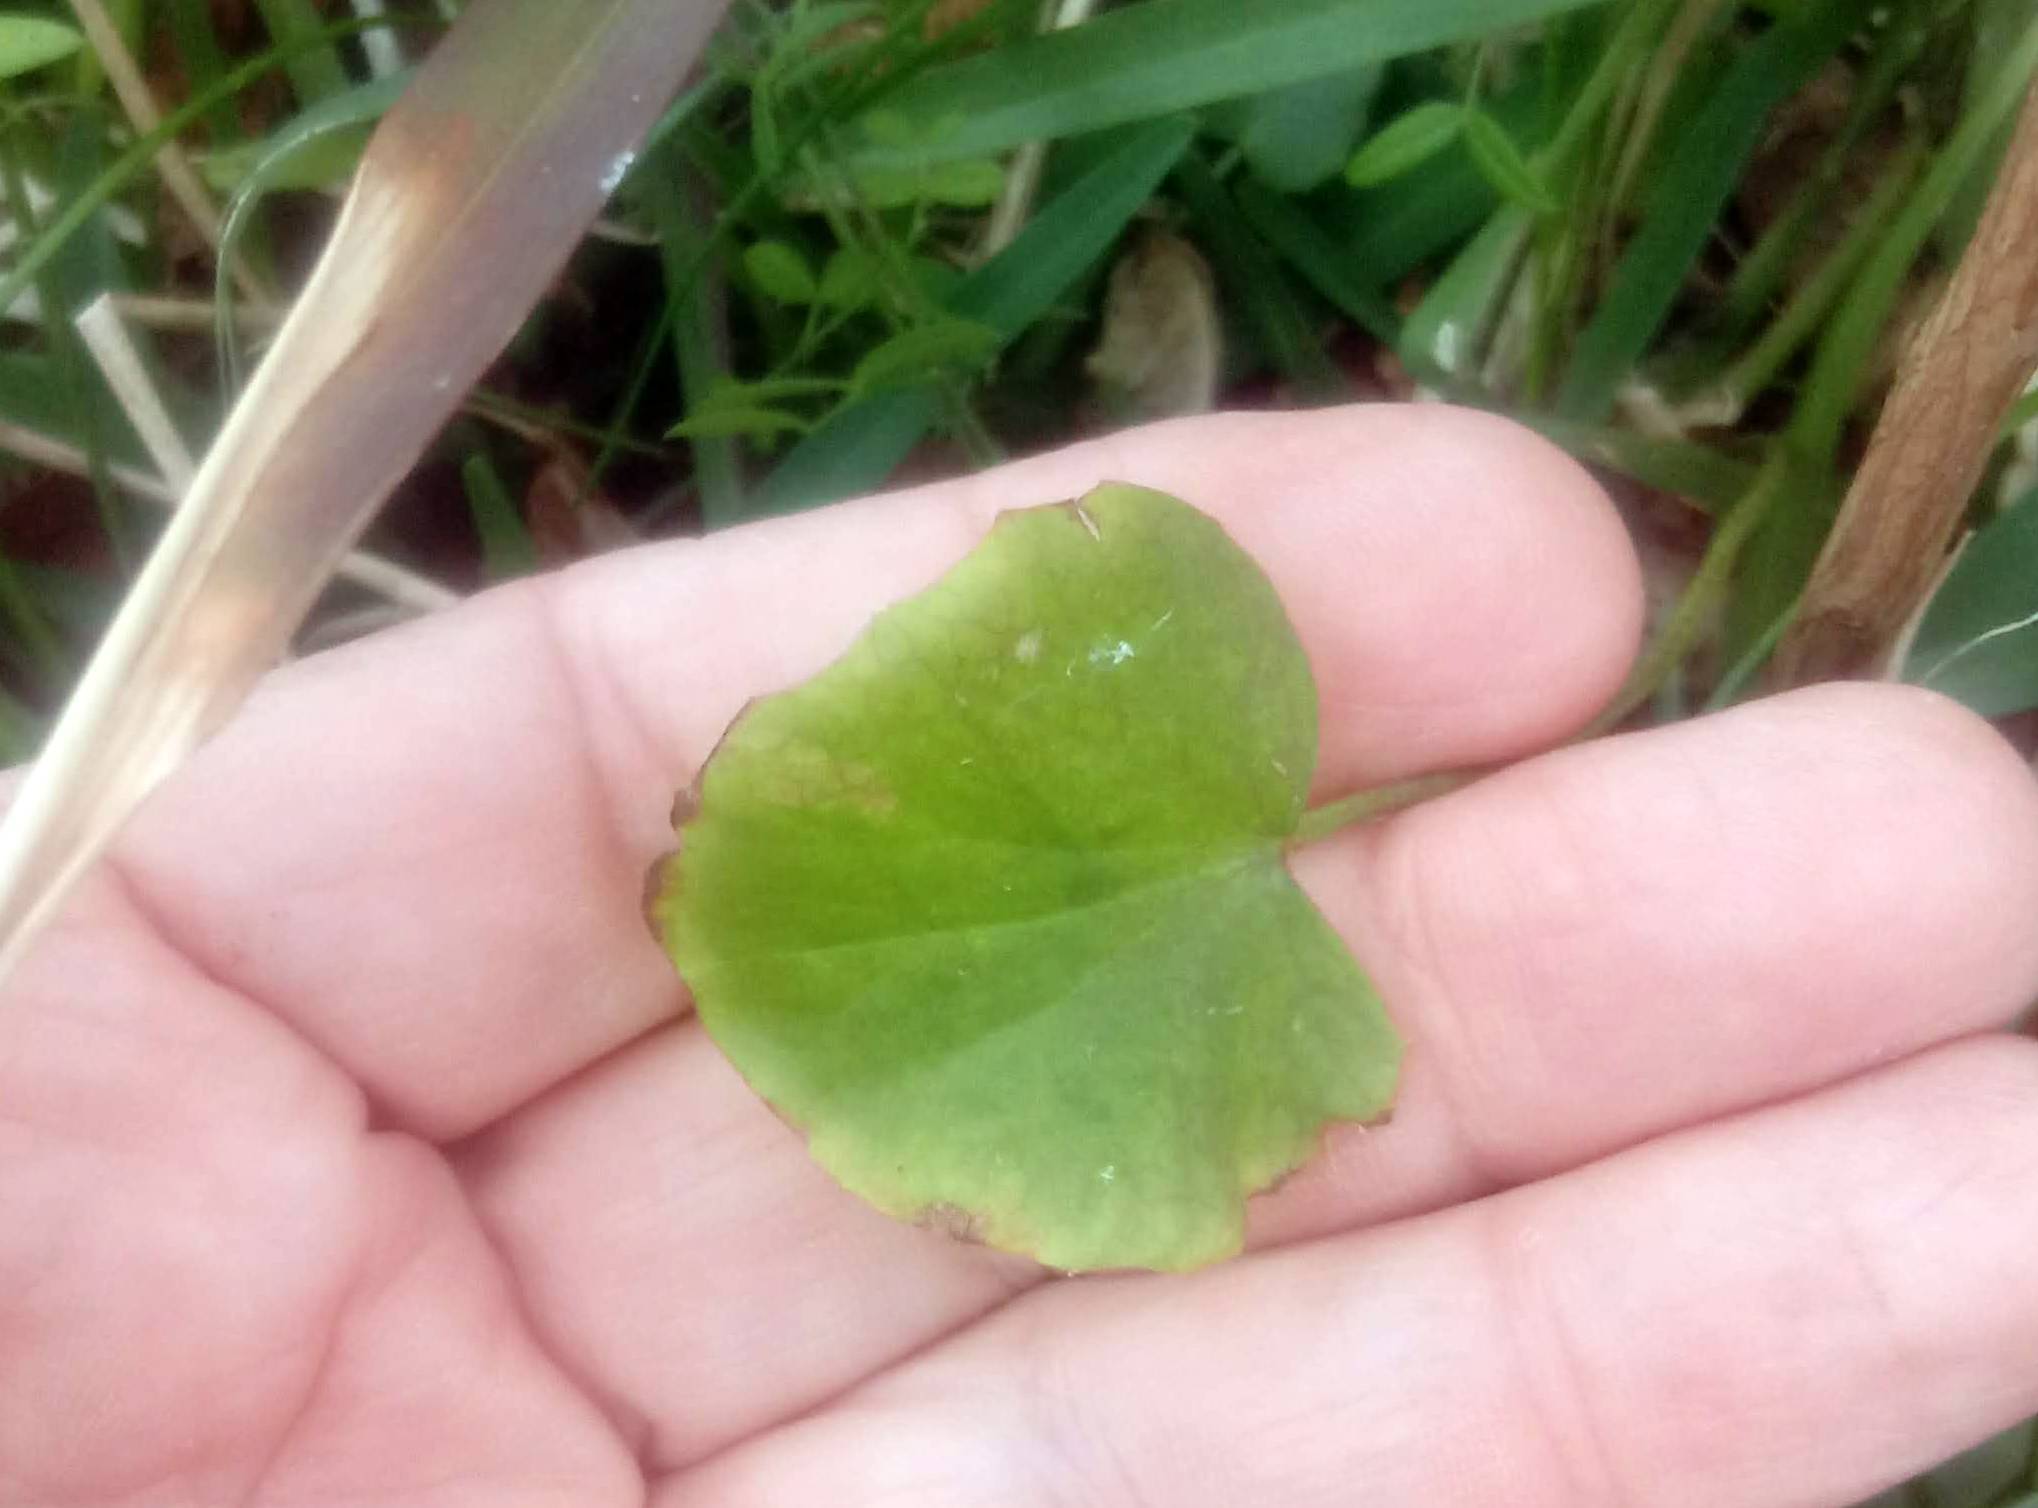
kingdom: Plantae
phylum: Tracheophyta
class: Magnoliopsida
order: Apiales
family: Apiaceae
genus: Centella
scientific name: Centella erecta
